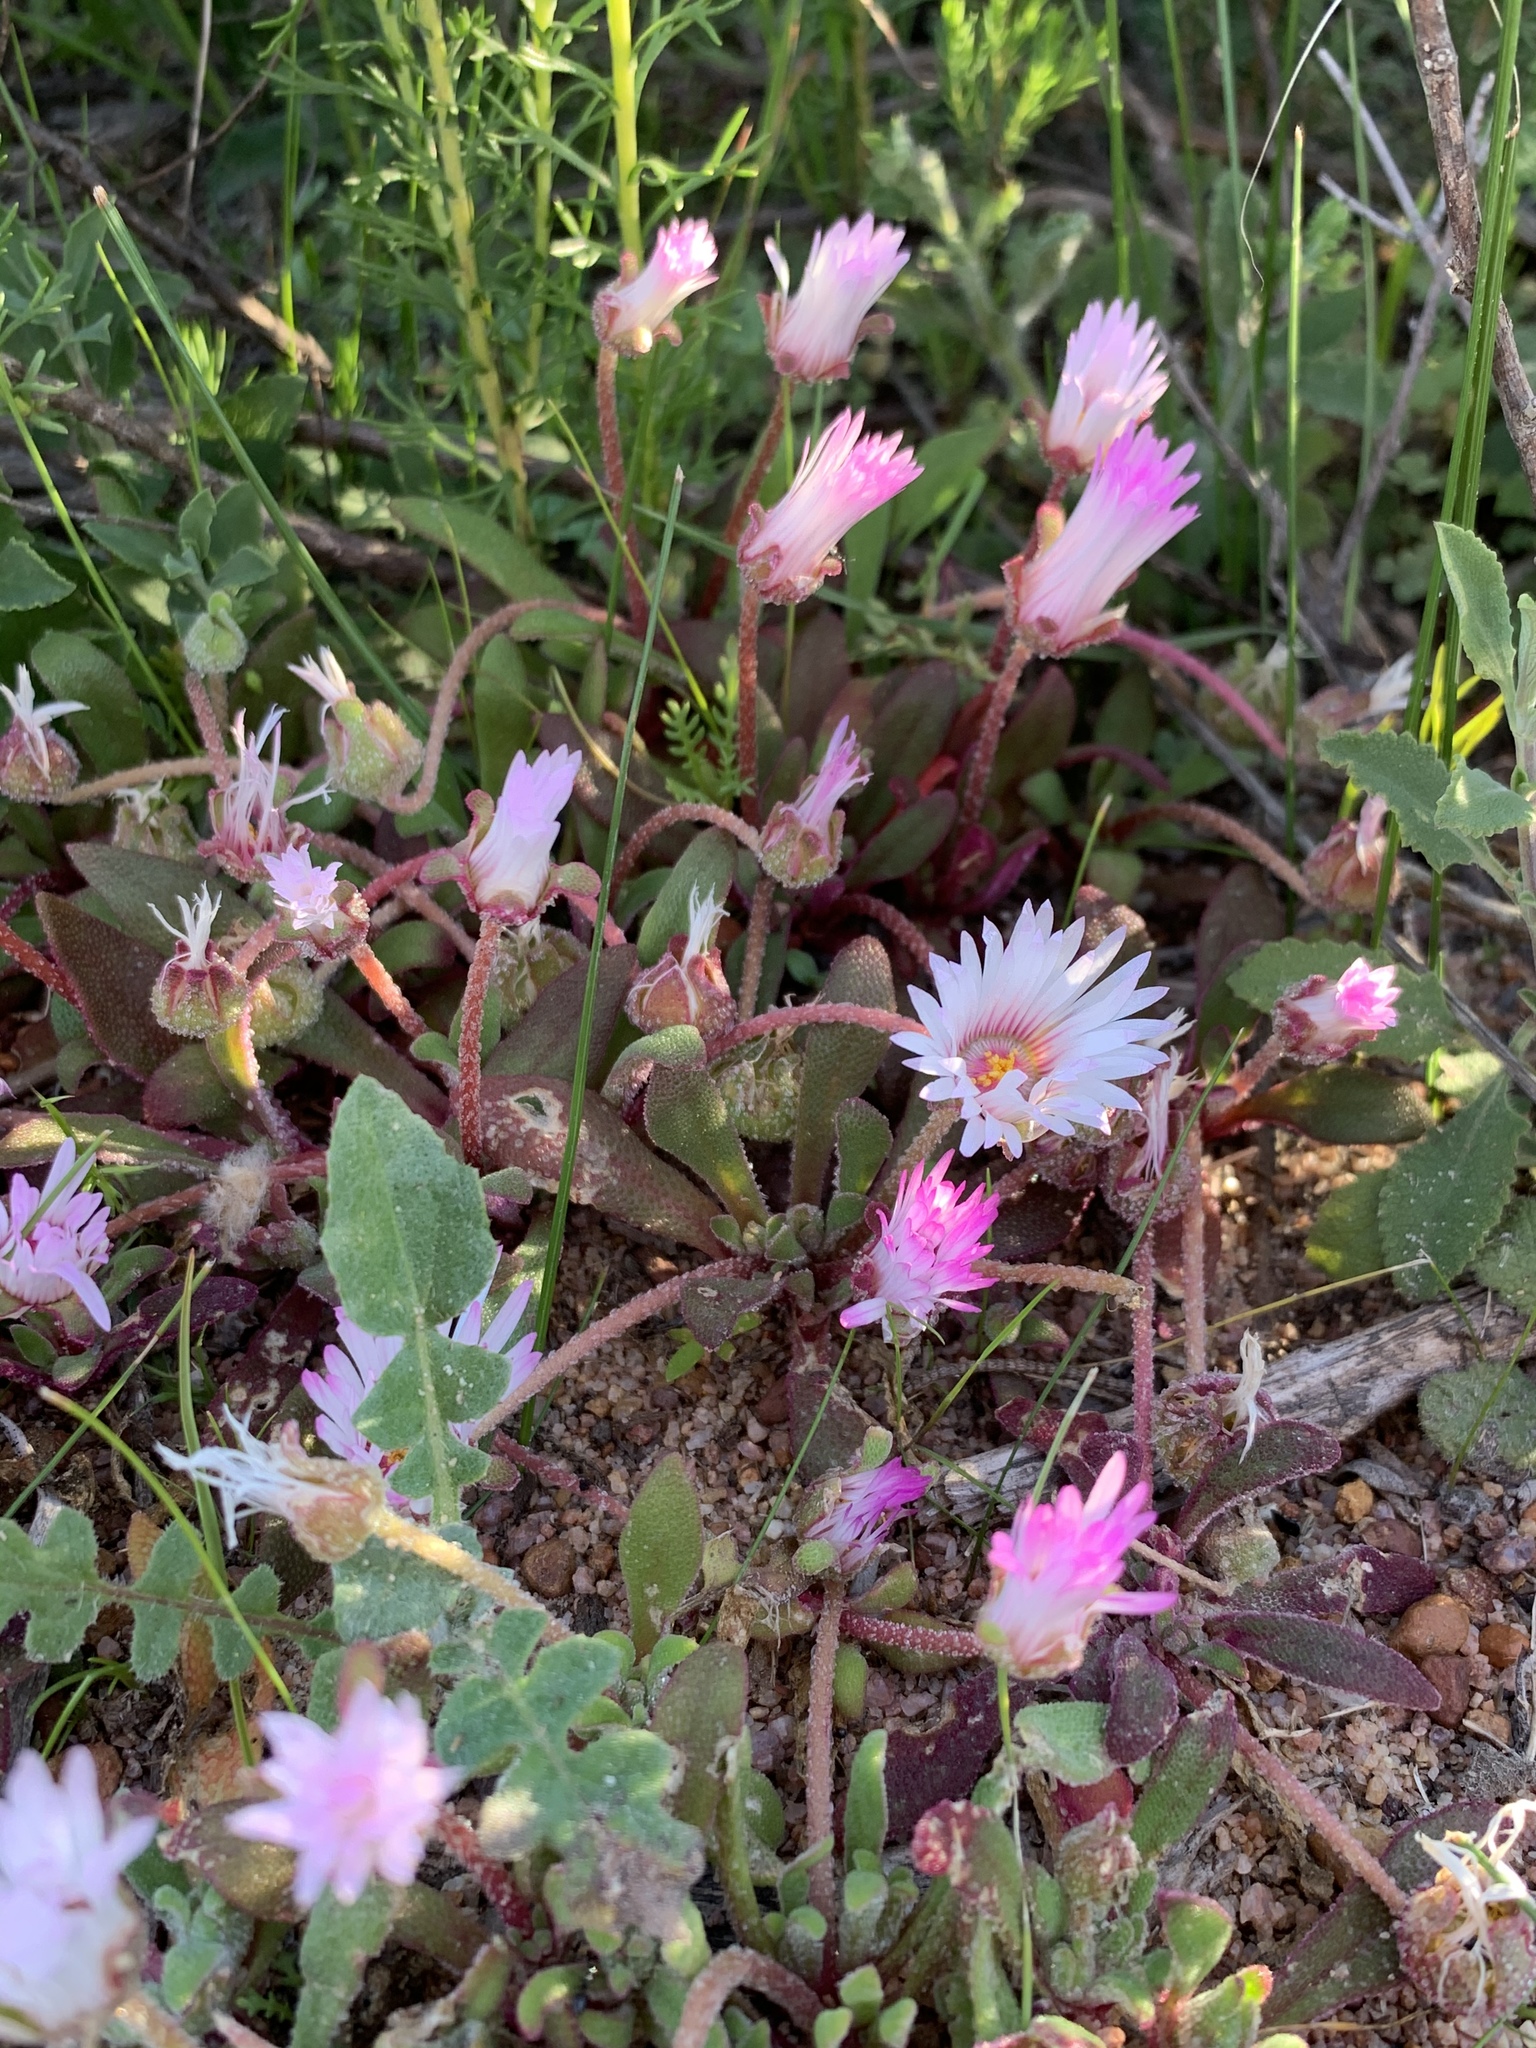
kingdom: Plantae
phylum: Tracheophyta
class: Magnoliopsida
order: Caryophyllales
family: Aizoaceae
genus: Cleretum
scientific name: Cleretum bellidiforme
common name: Livingstone daisy
